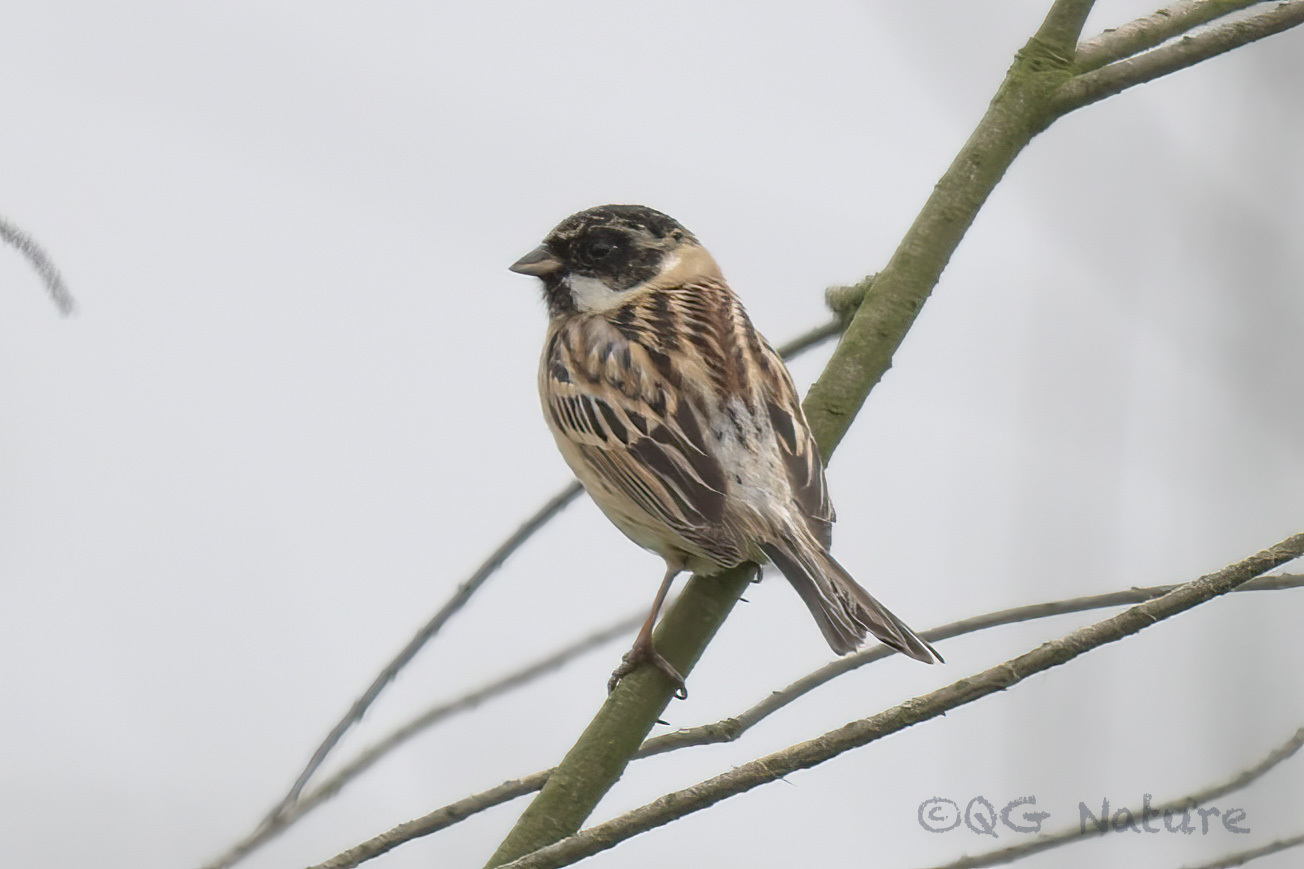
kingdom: Animalia
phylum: Chordata
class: Aves
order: Passeriformes
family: Emberizidae
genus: Emberiza
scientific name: Emberiza pallasi
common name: Pallas's reed bunting
